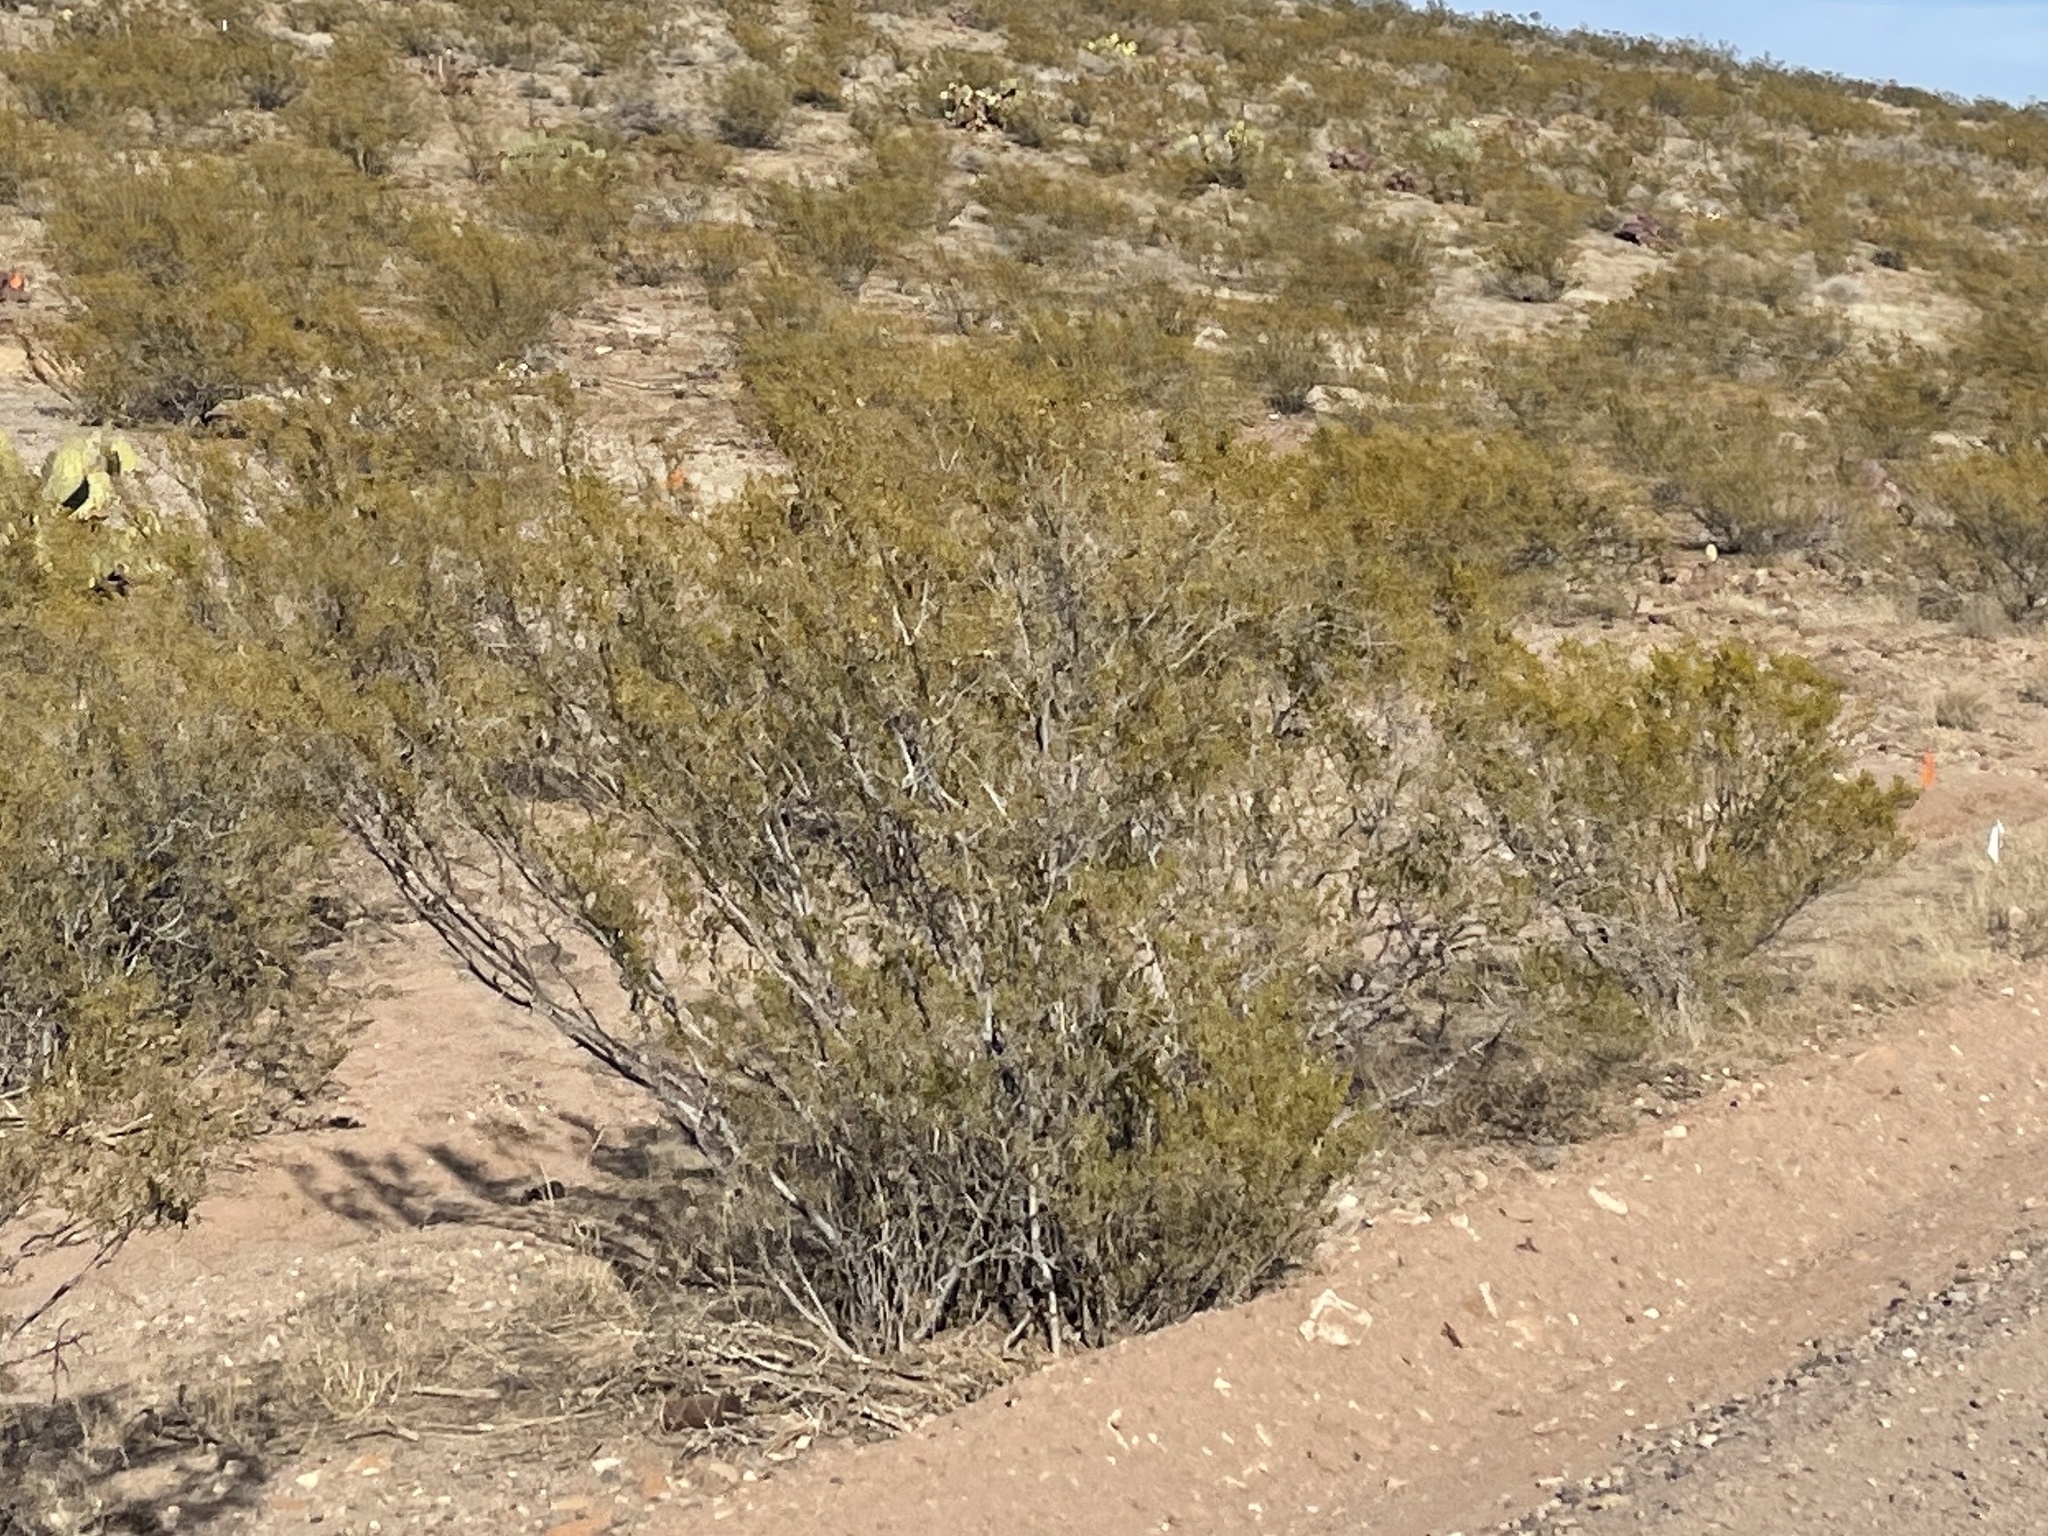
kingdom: Plantae
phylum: Tracheophyta
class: Magnoliopsida
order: Zygophyllales
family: Zygophyllaceae
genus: Larrea
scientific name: Larrea tridentata
